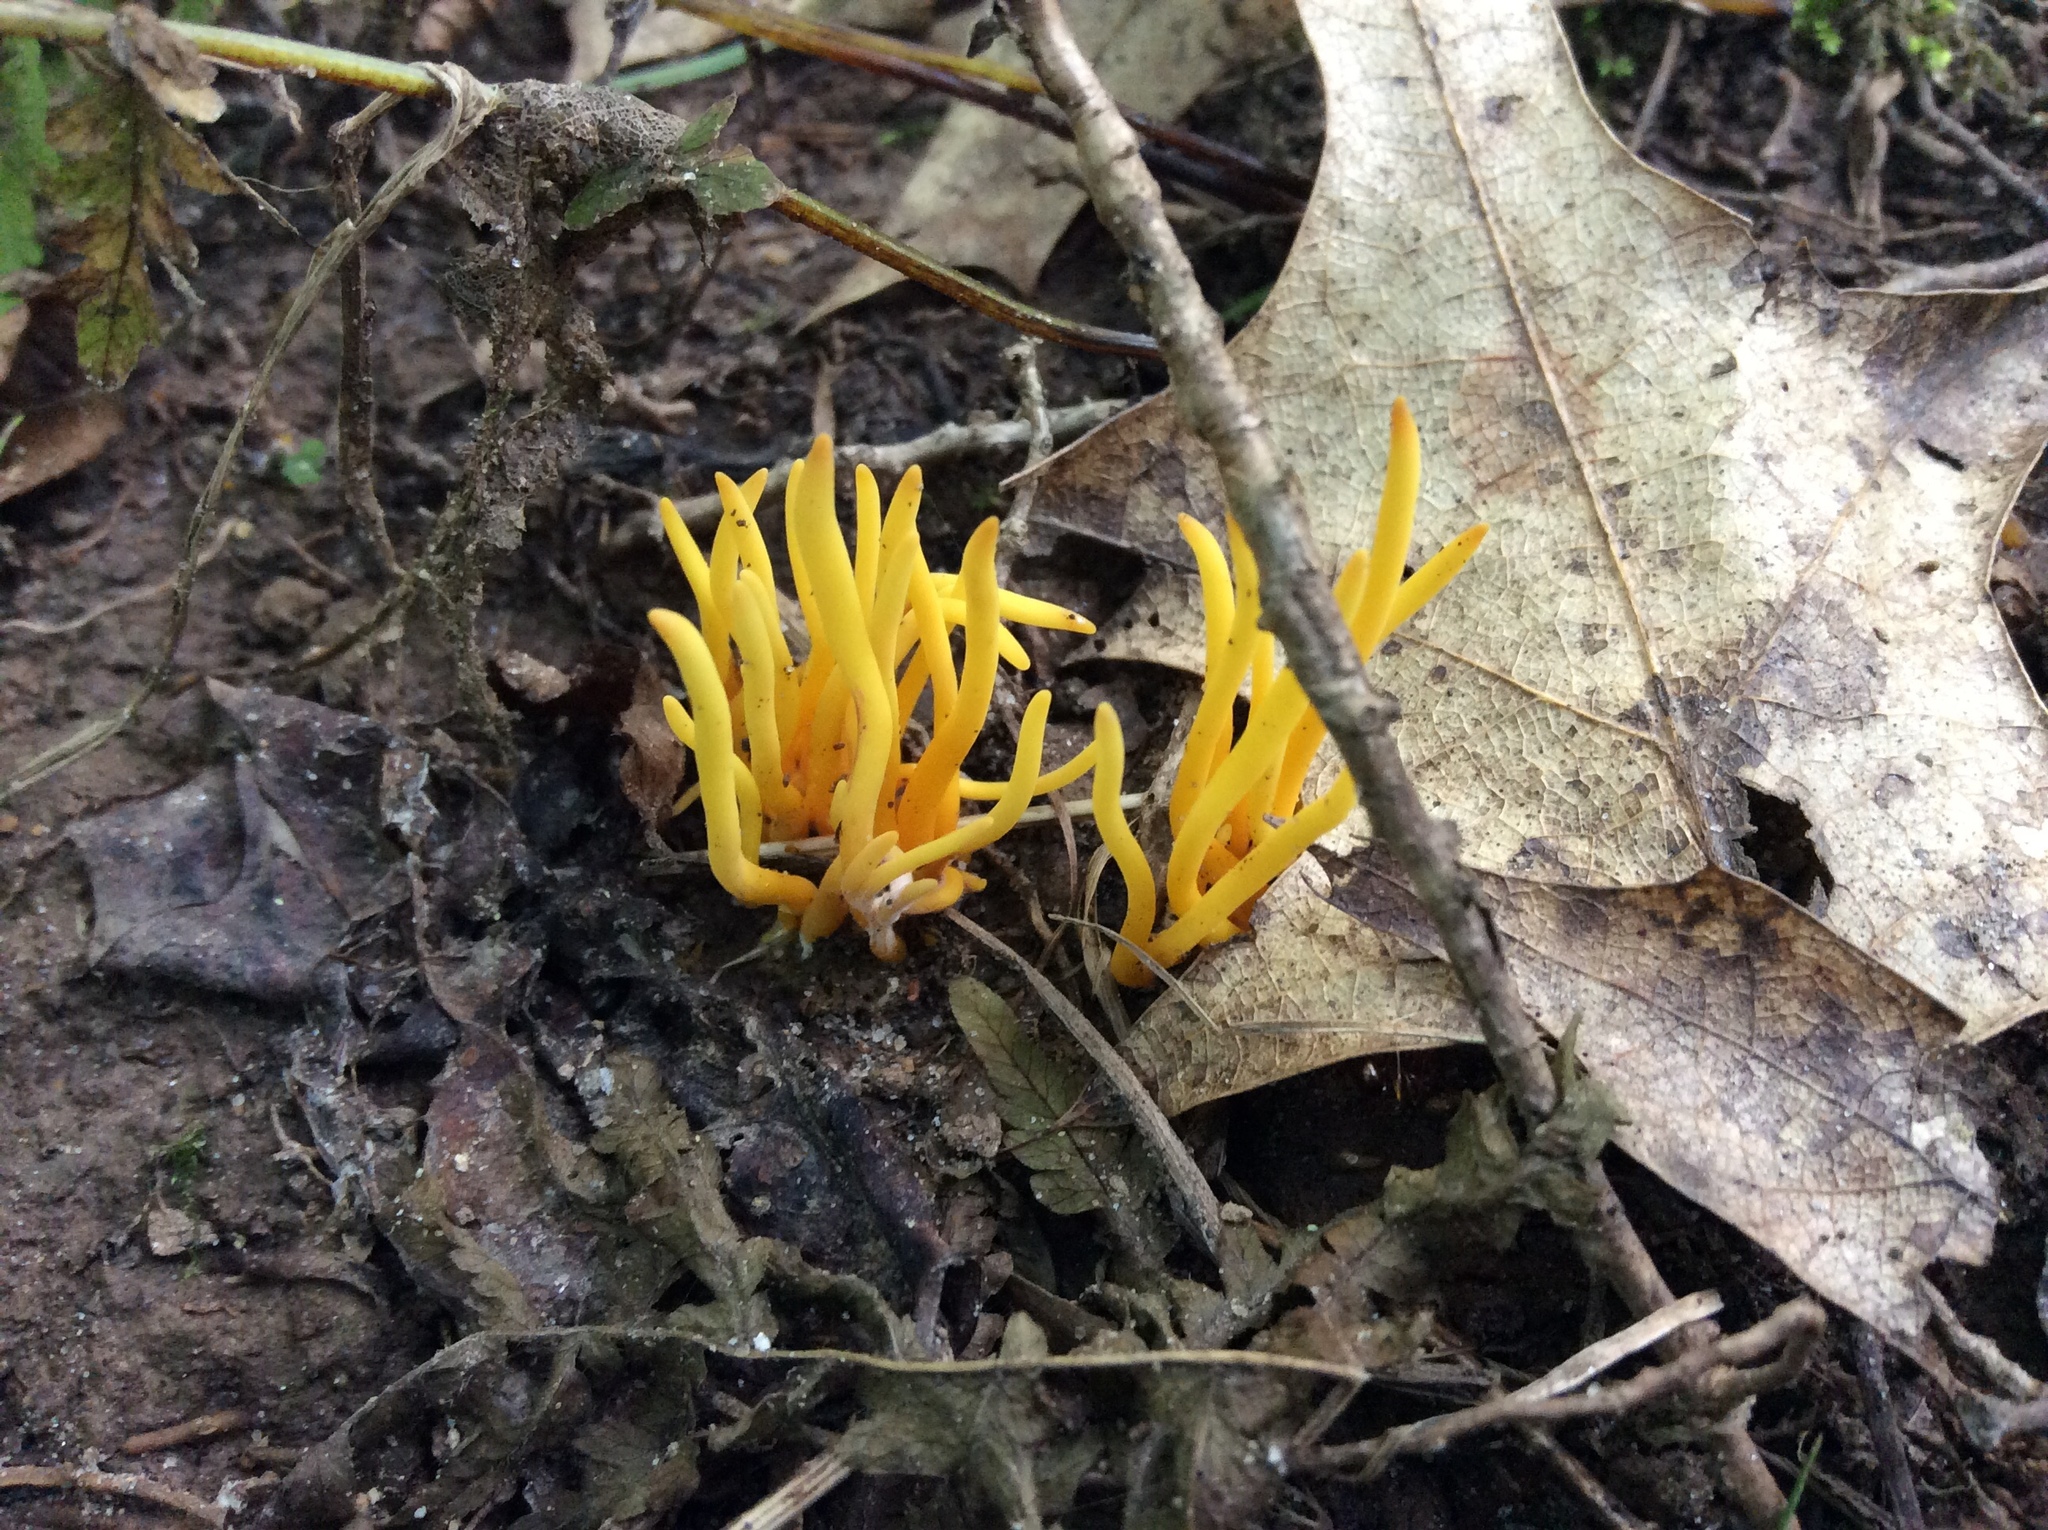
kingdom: Fungi
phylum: Basidiomycota
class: Agaricomycetes
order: Agaricales
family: Clavariaceae
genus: Clavulinopsis
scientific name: Clavulinopsis fusiformis
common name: Golden spindles
